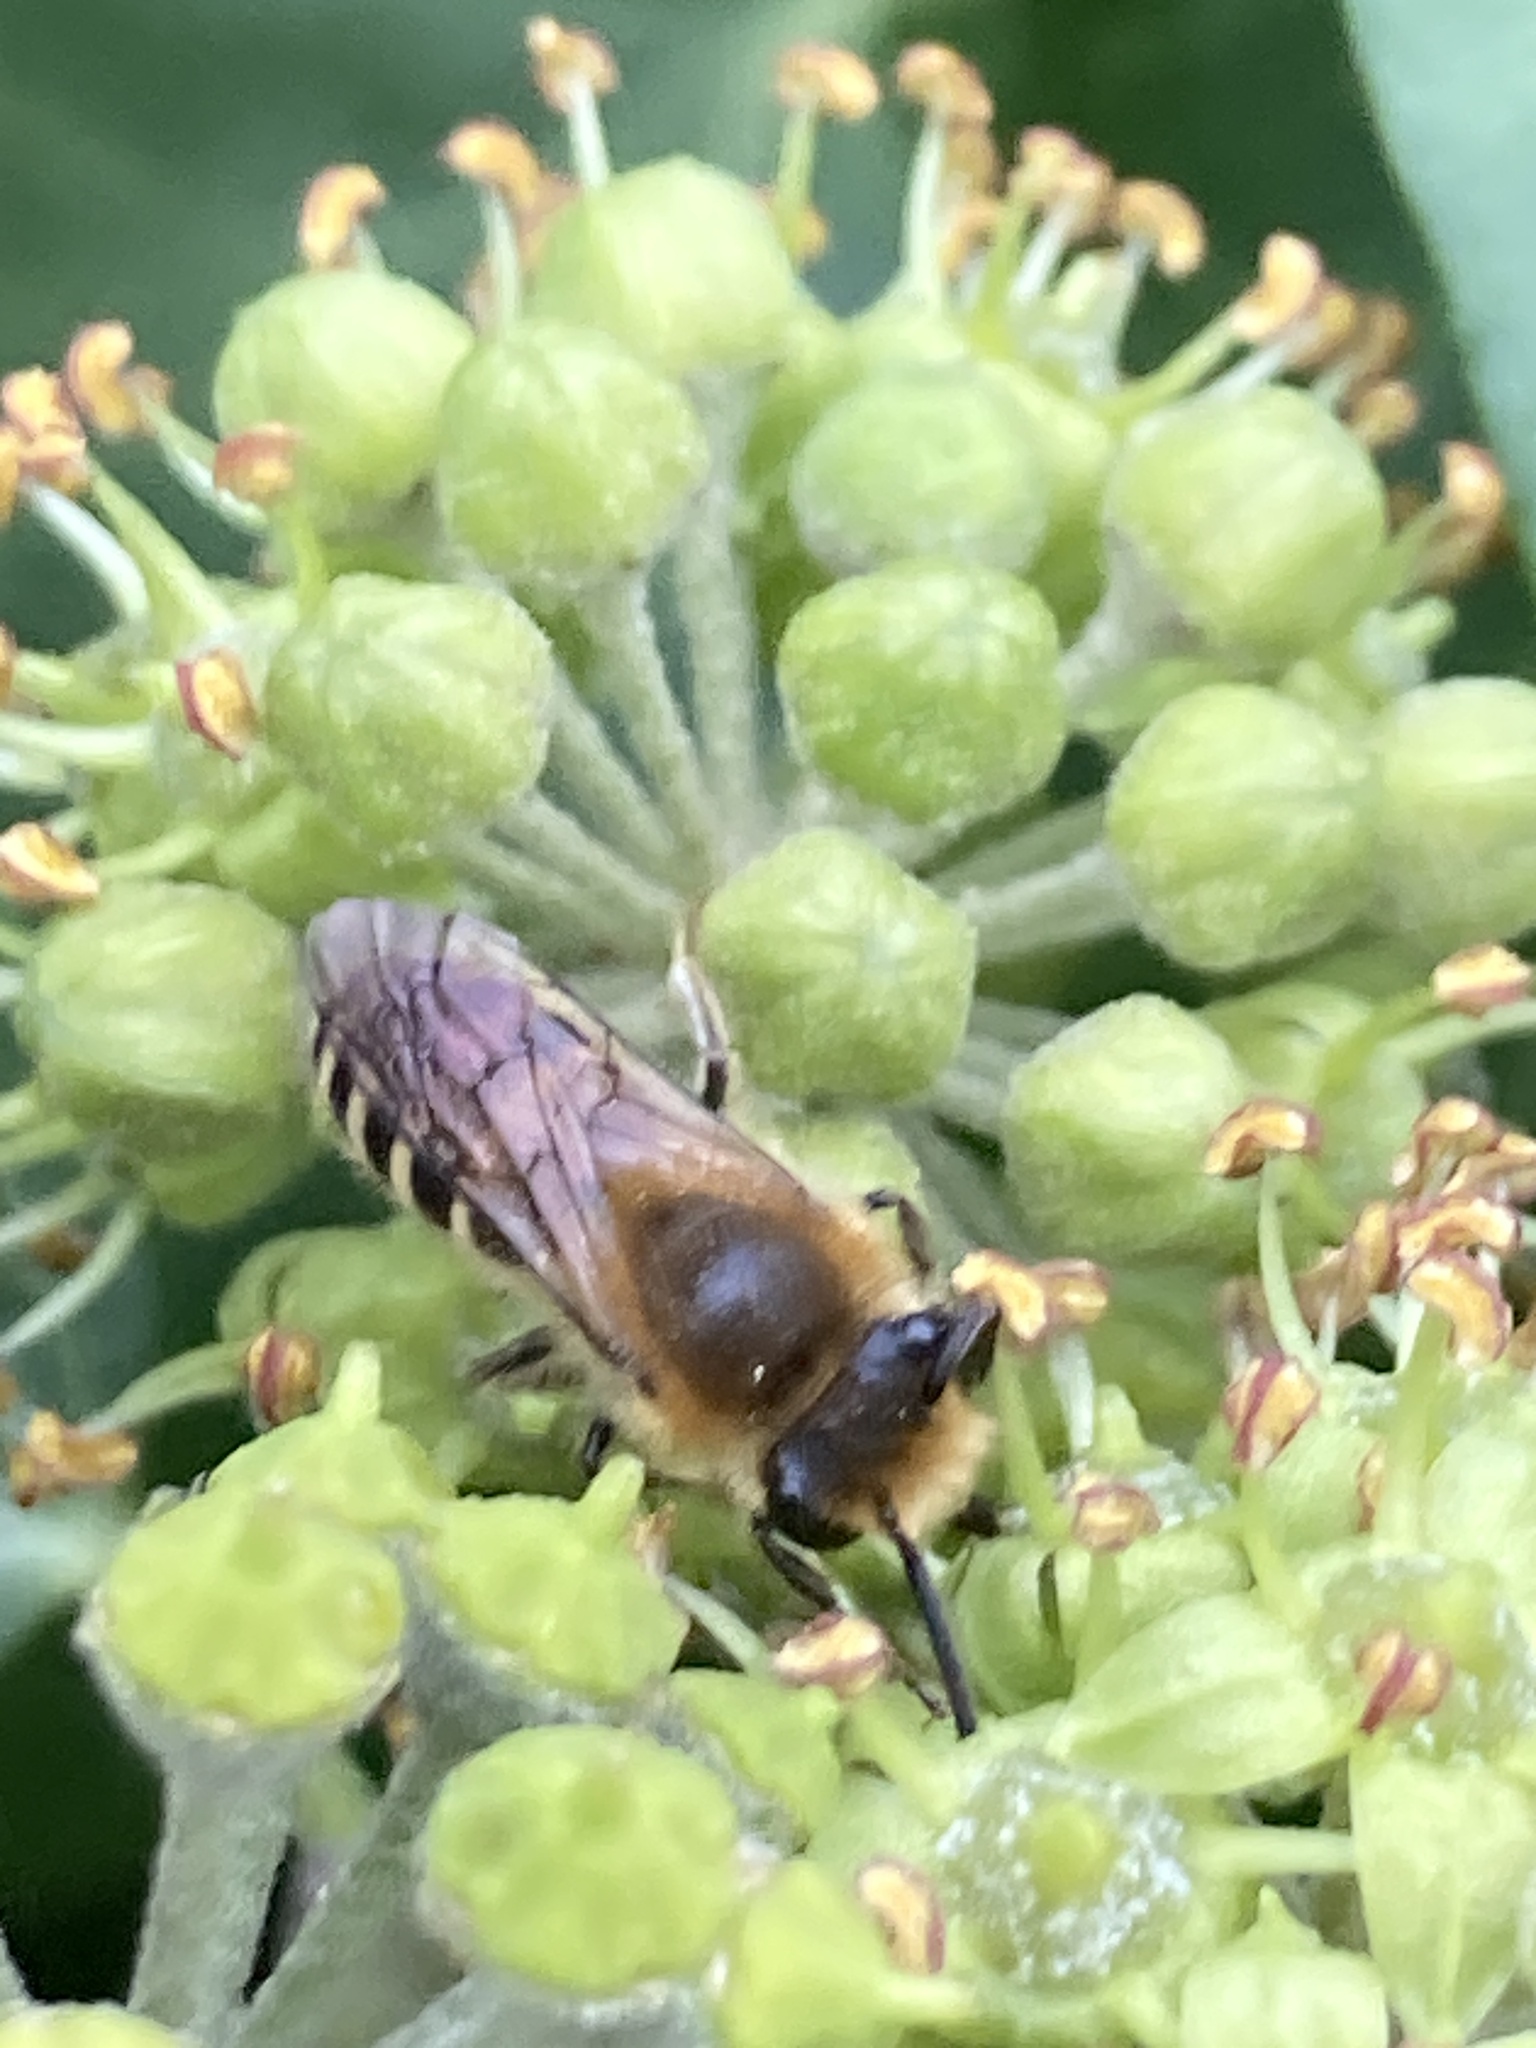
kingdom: Animalia
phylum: Arthropoda
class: Insecta
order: Hymenoptera
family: Colletidae
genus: Colletes
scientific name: Colletes hederae
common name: Ivy bee
